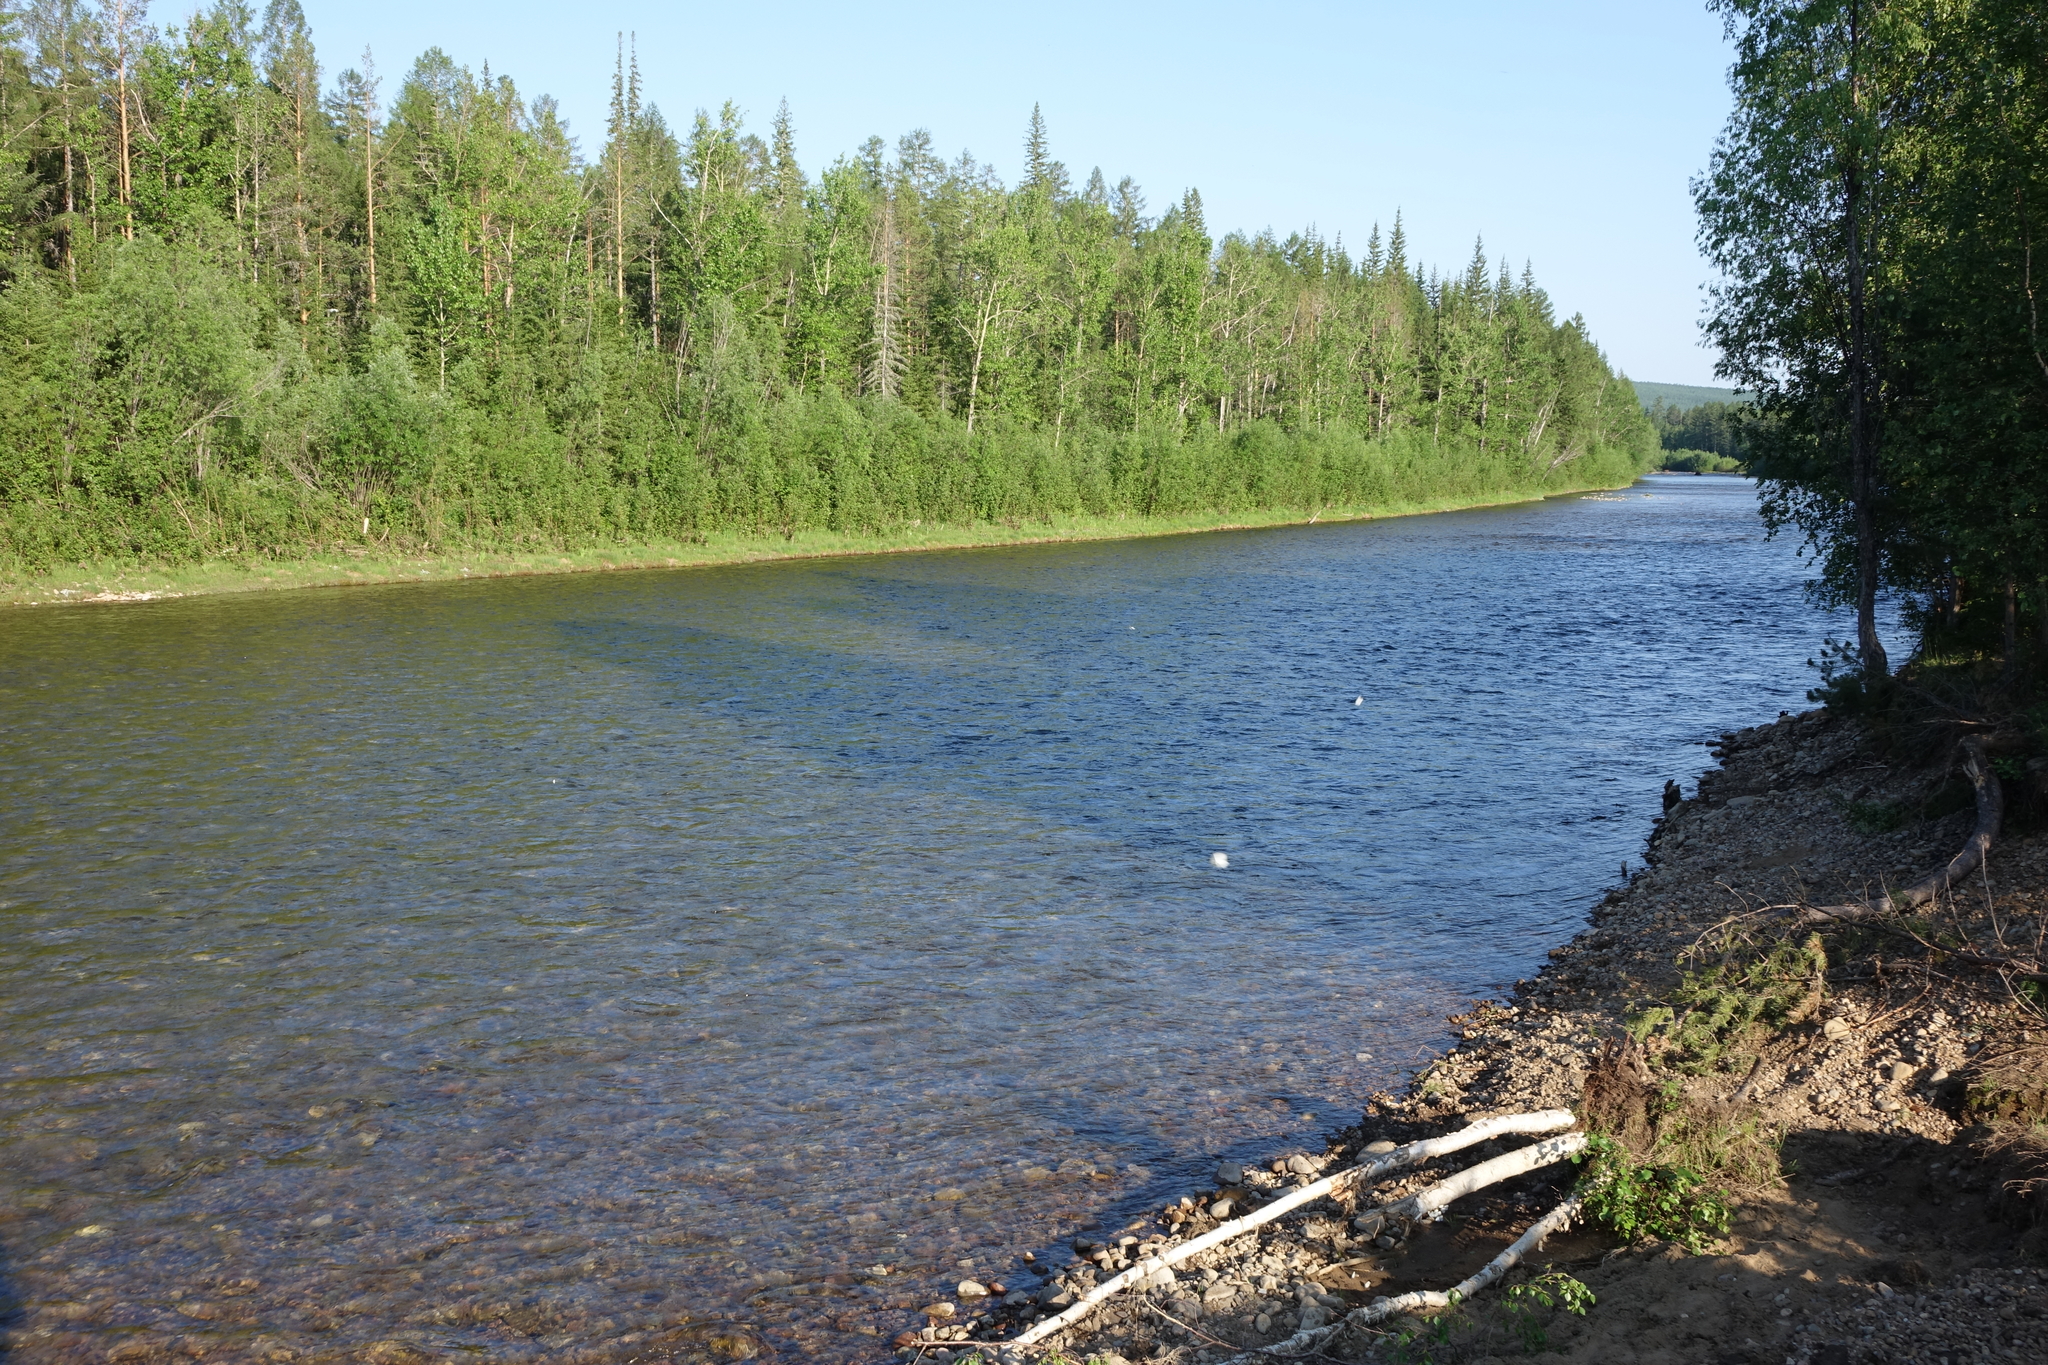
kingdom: Plantae
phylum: Tracheophyta
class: Pinopsida
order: Pinales
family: Pinaceae
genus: Picea
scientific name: Picea obovata
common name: Siberian spruce
